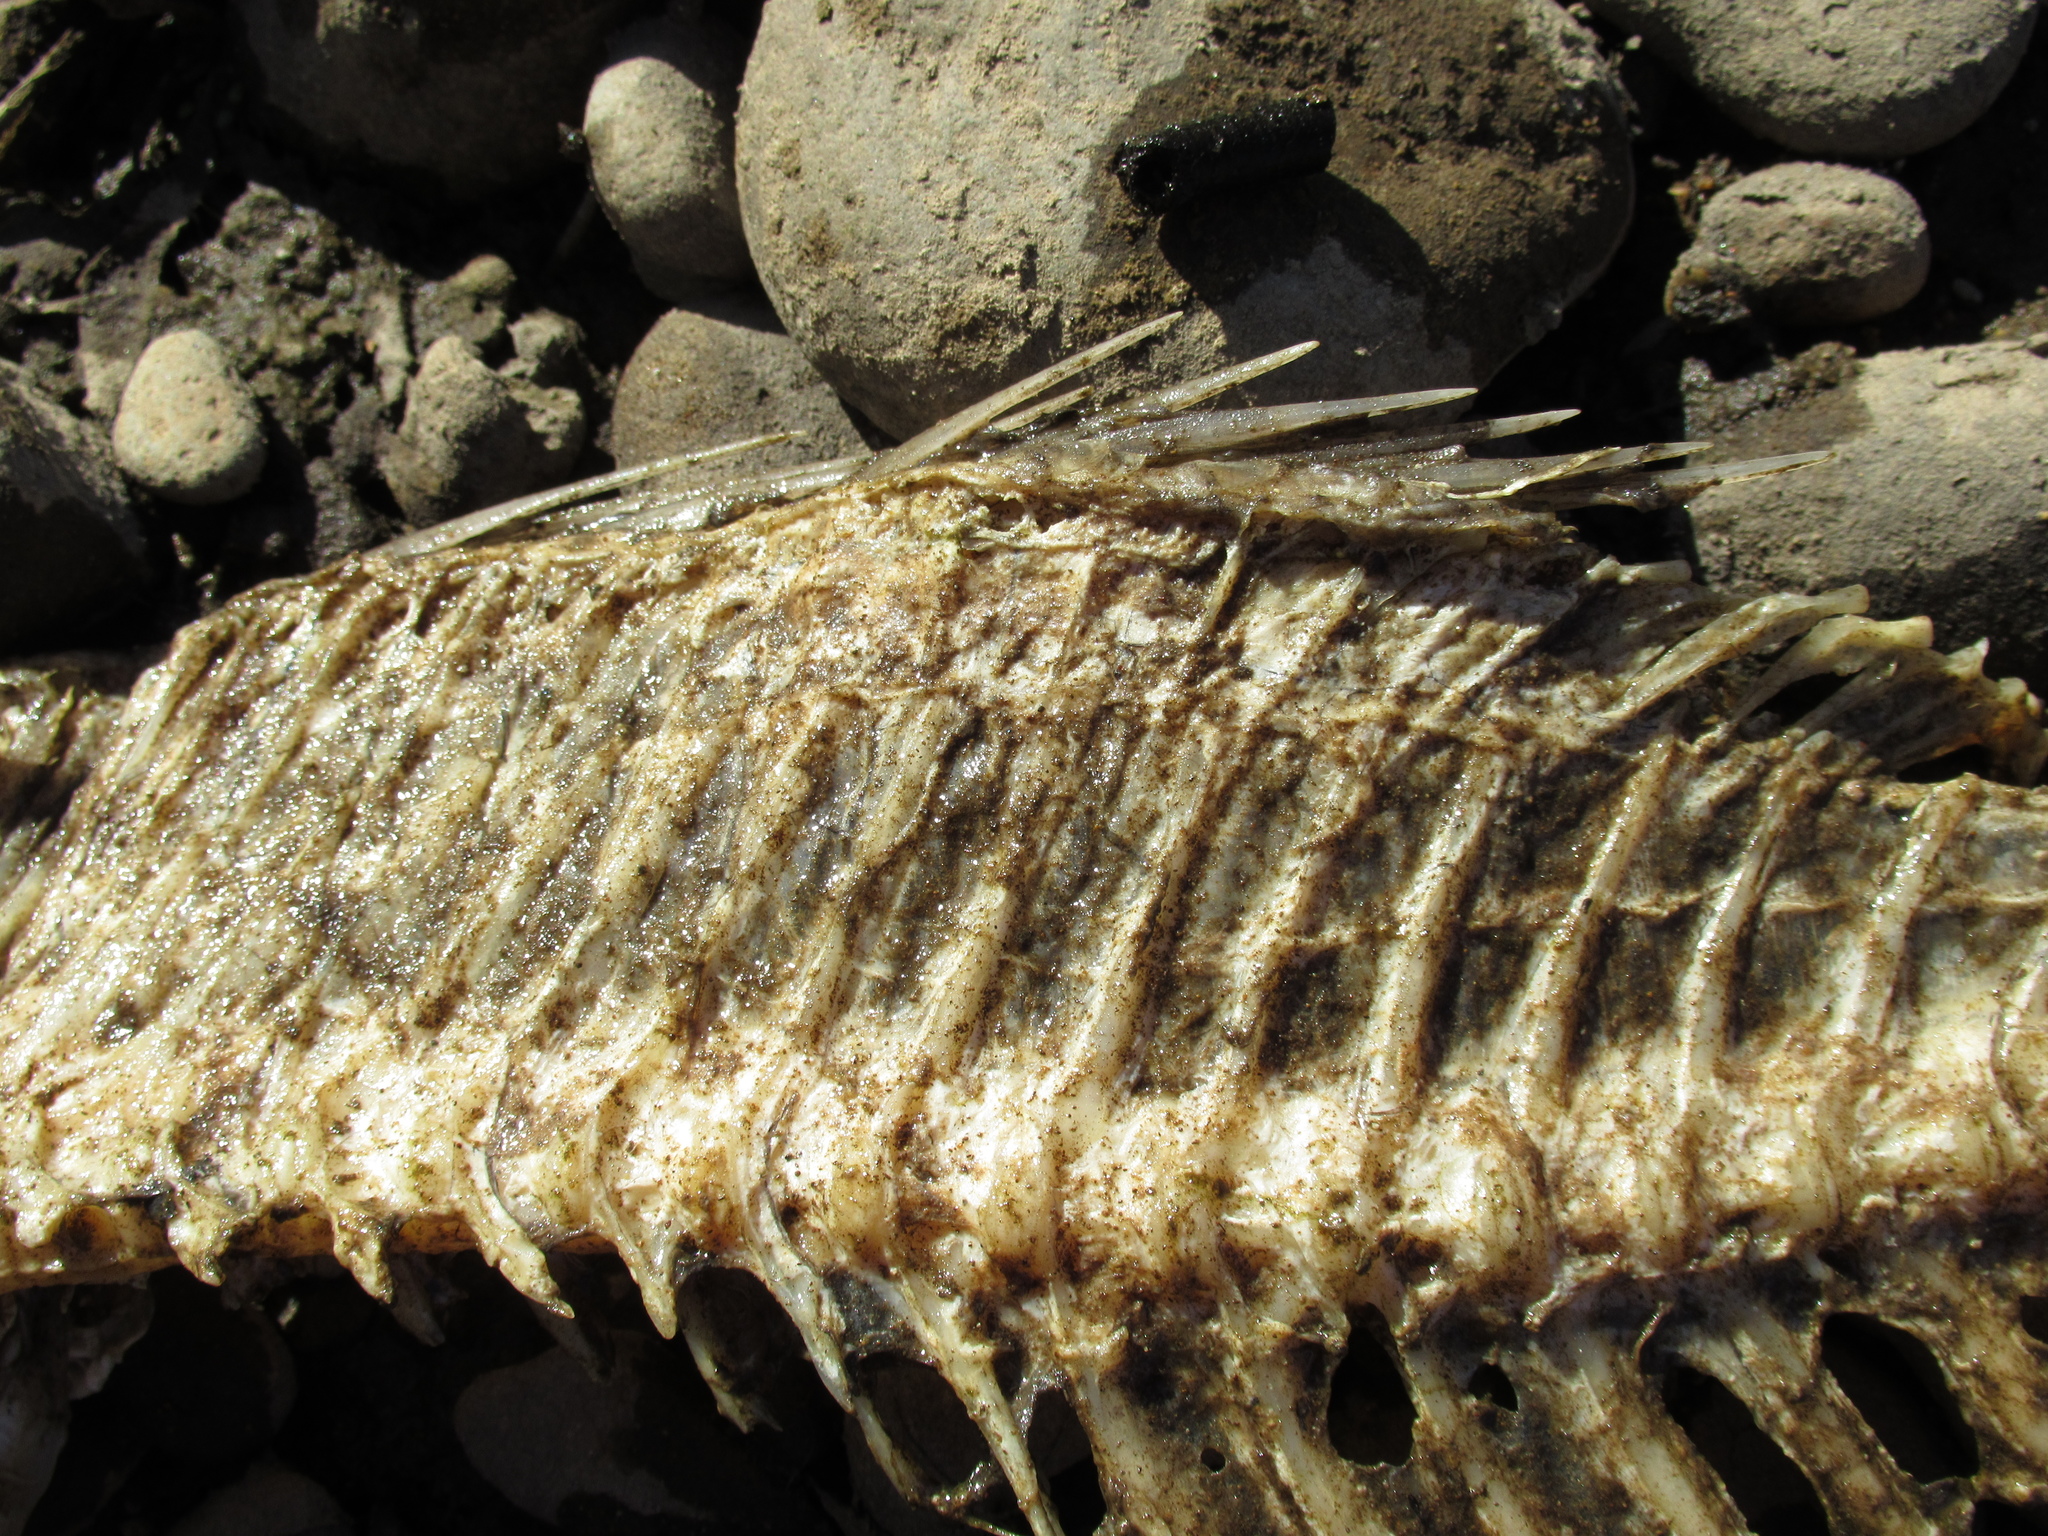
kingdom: Animalia
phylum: Chordata
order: Perciformes
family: Sparidae
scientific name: Sparidae
